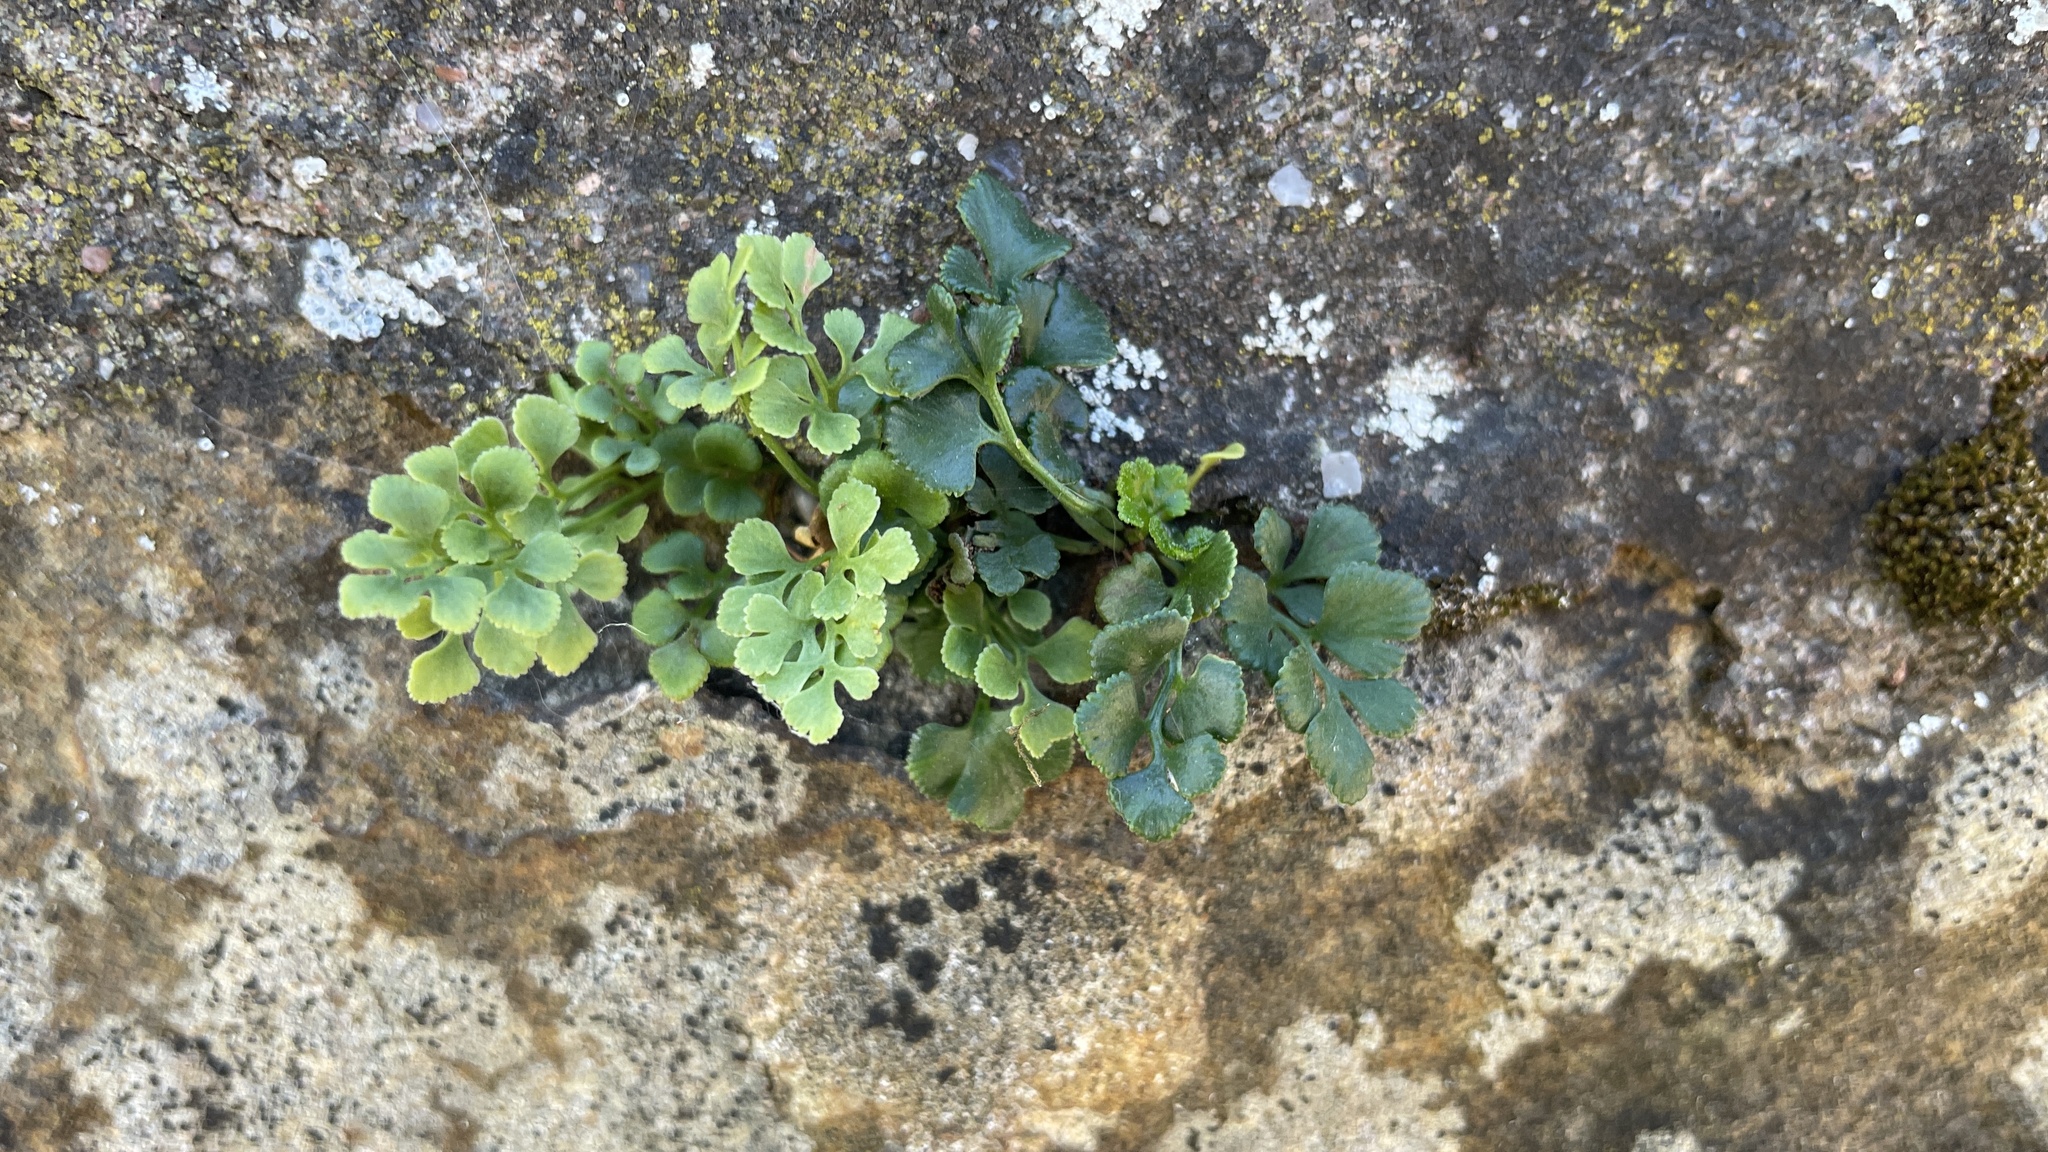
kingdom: Plantae
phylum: Tracheophyta
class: Polypodiopsida
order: Polypodiales
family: Aspleniaceae
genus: Asplenium
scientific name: Asplenium ruta-muraria
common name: Wall-rue
